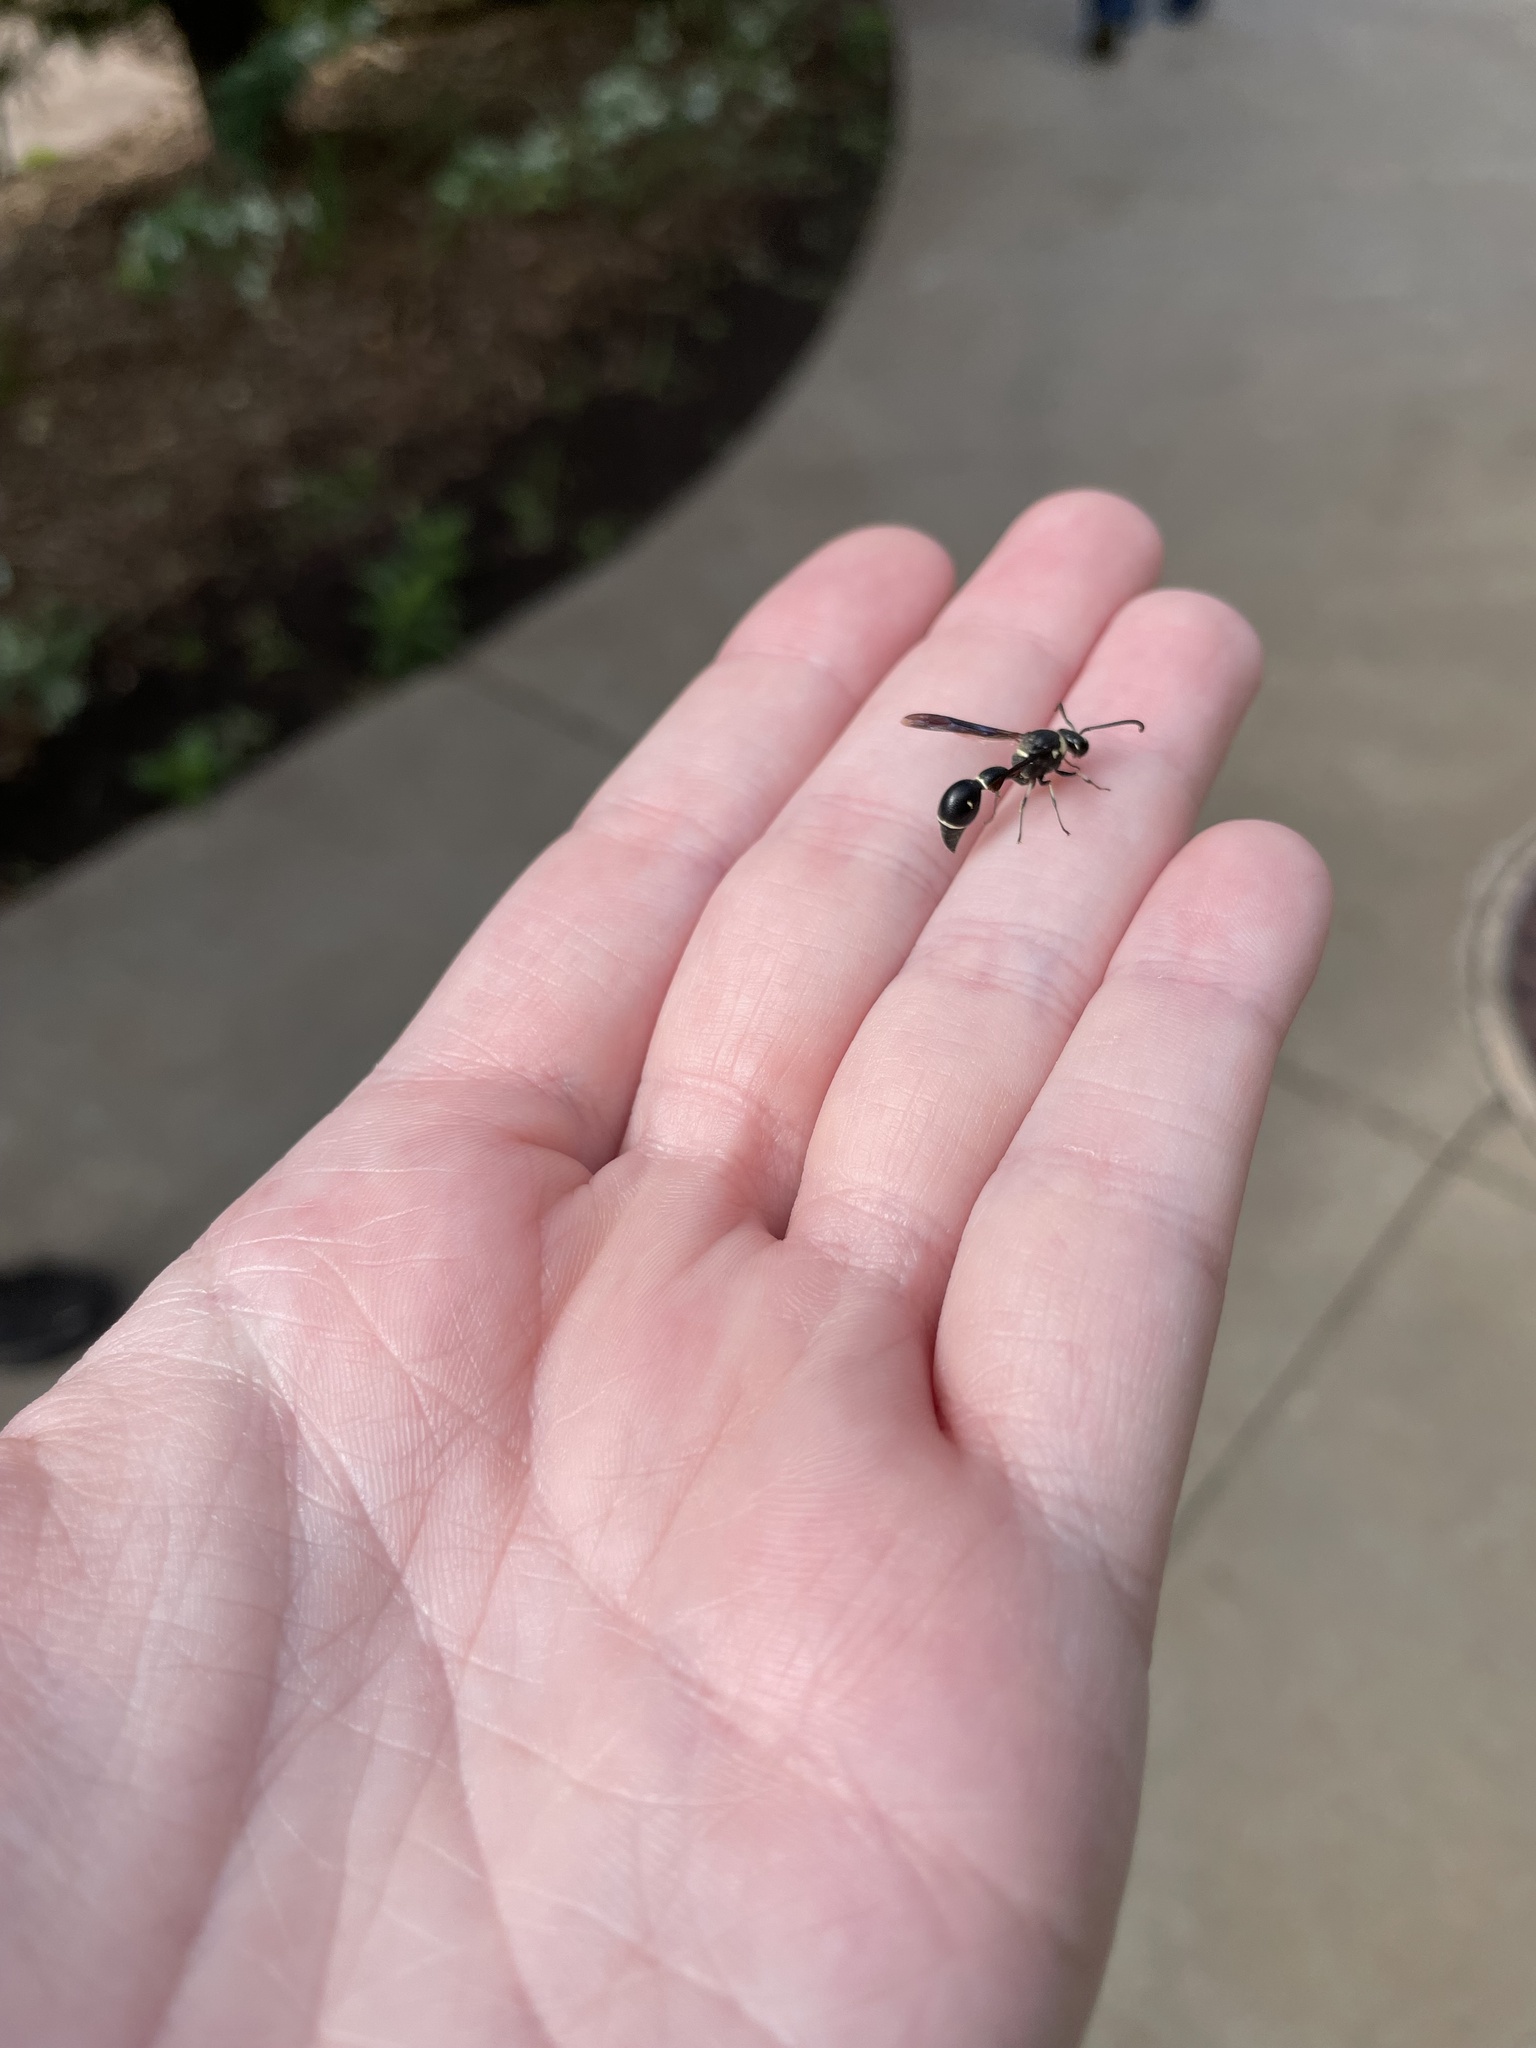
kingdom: Animalia
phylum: Arthropoda
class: Insecta
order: Hymenoptera
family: Vespidae
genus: Eumenes
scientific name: Eumenes fraternus
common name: Fraternal potter wasp
